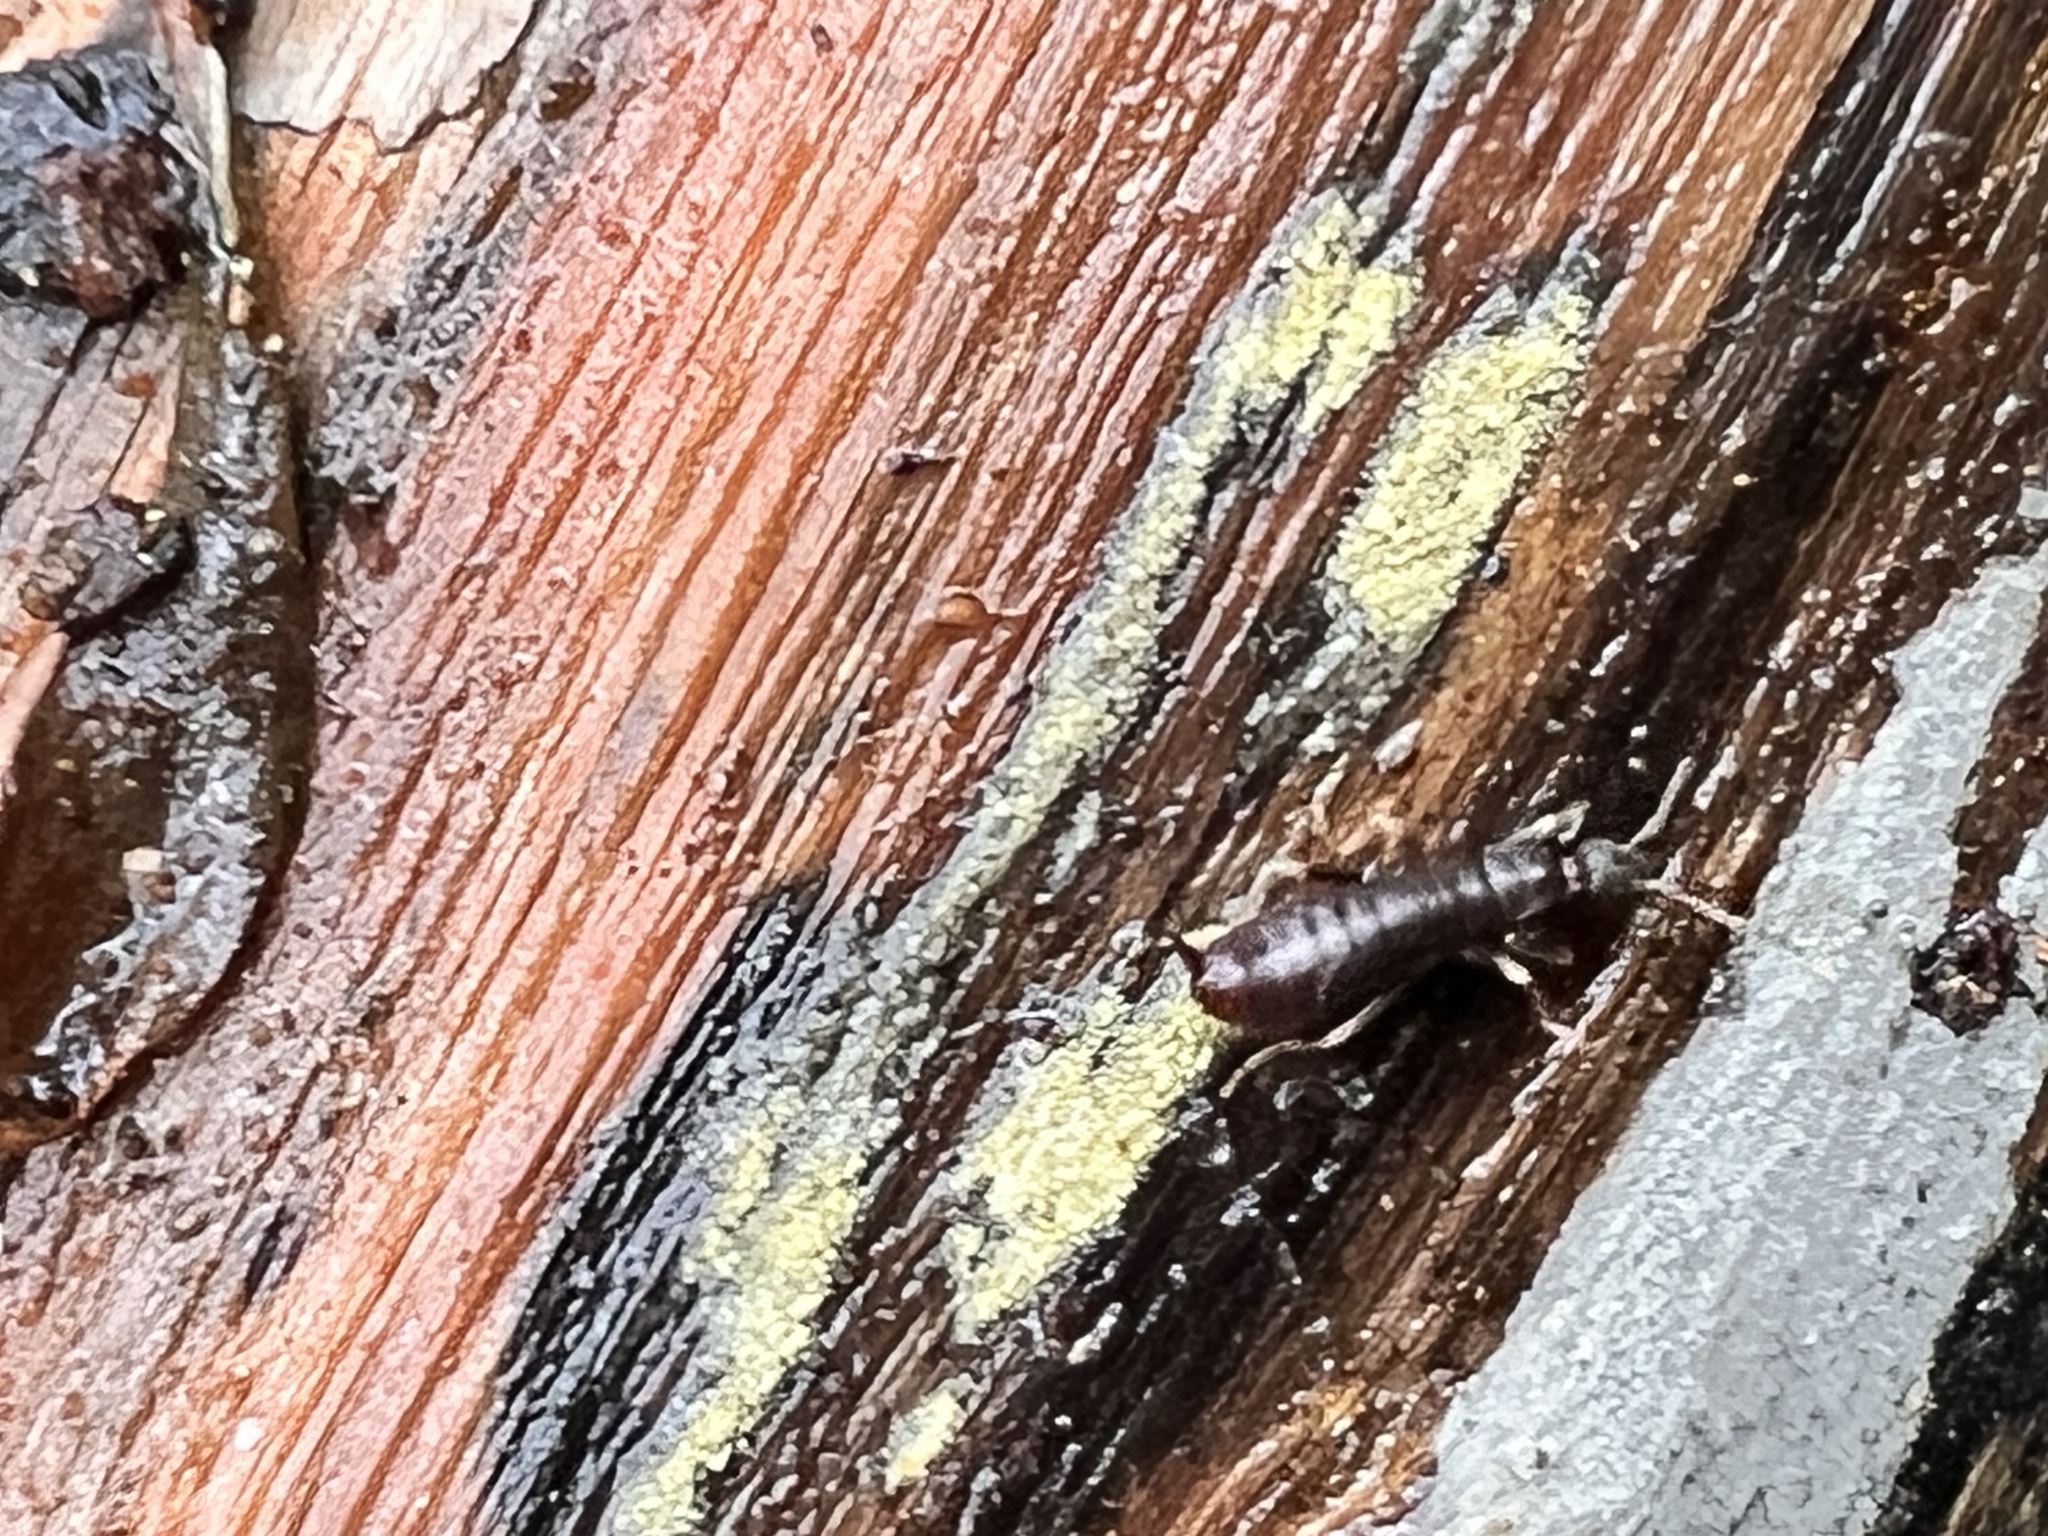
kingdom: Animalia
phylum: Arthropoda
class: Insecta
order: Dermaptera
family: Anisolabididae
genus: Metisolabis
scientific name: Metisolabis punctata
